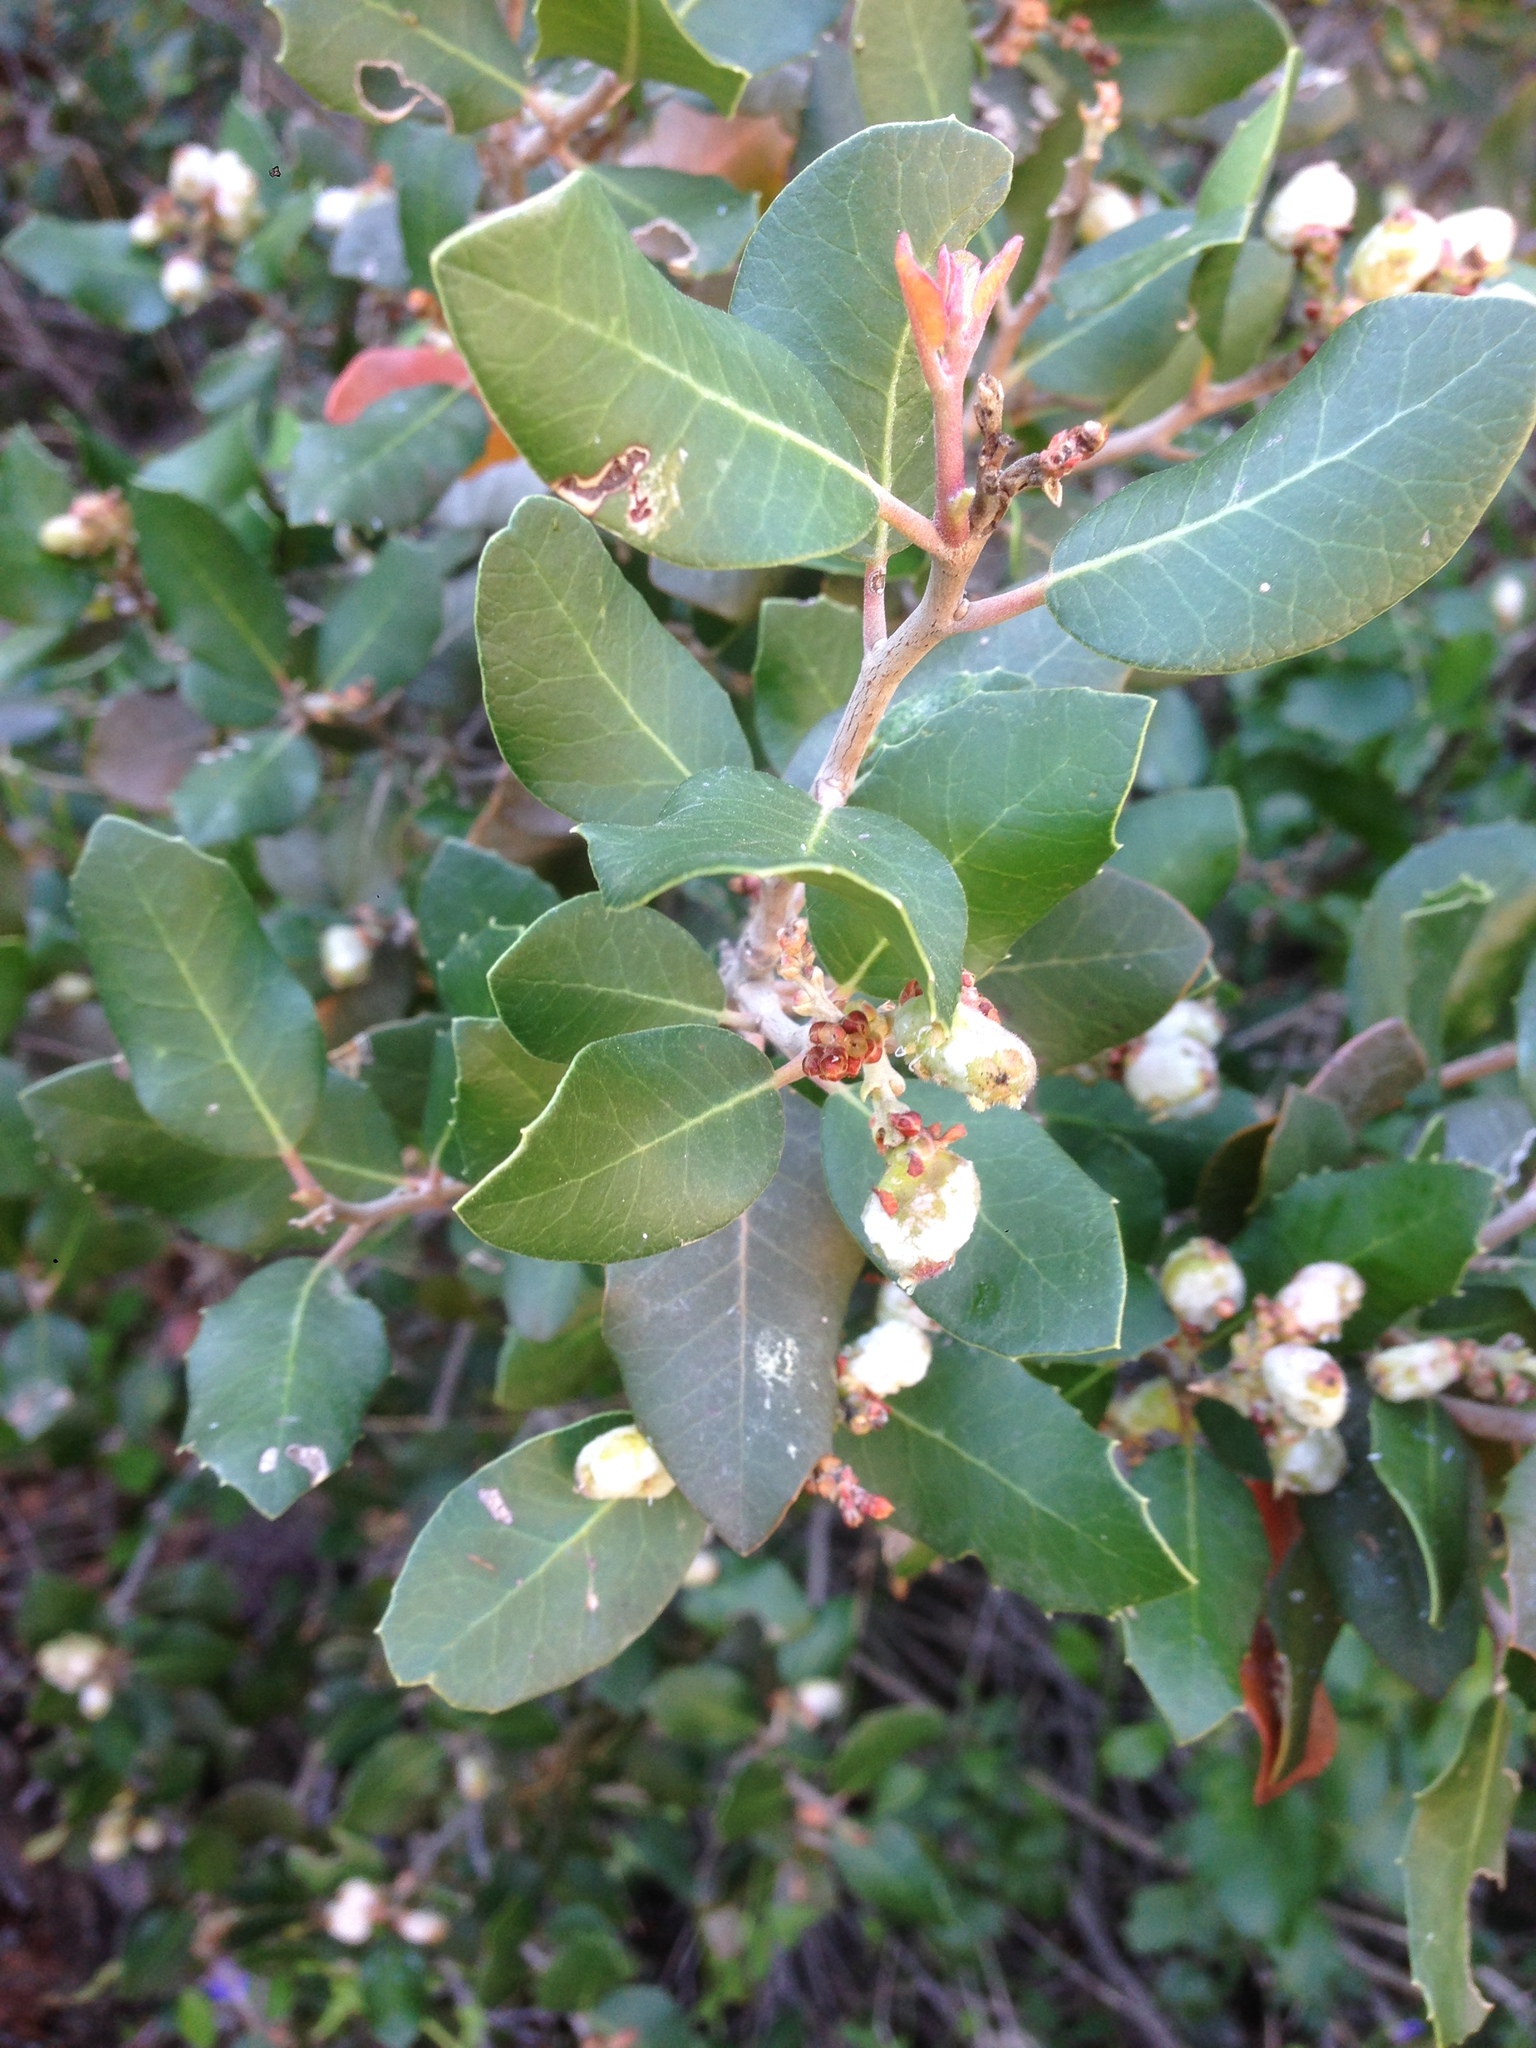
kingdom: Plantae
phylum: Tracheophyta
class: Magnoliopsida
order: Sapindales
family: Anacardiaceae
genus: Rhus
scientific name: Rhus integrifolia
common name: Lemonade sumac
